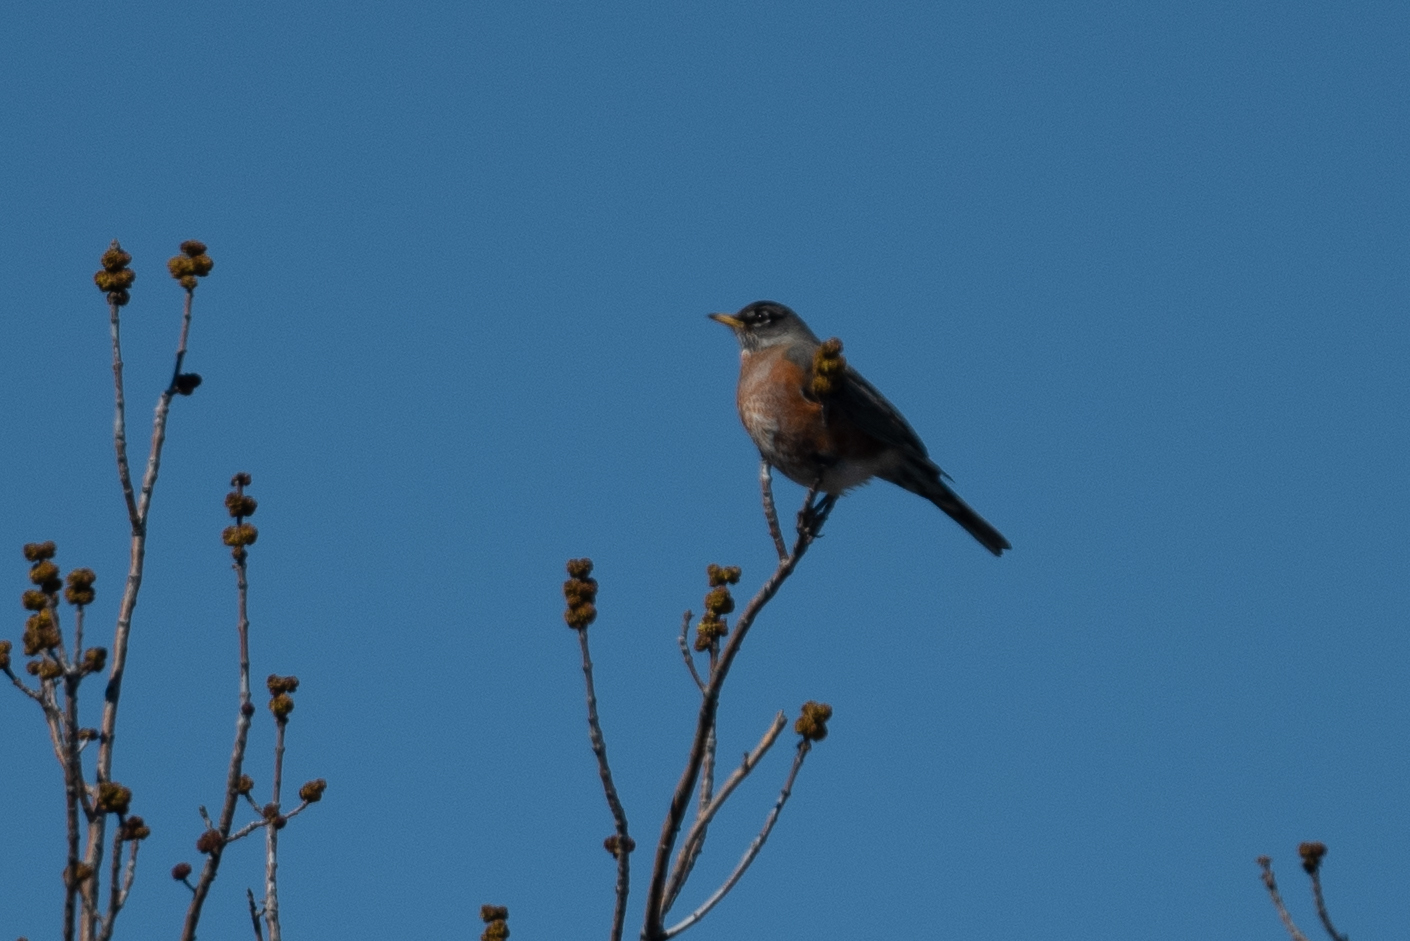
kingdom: Animalia
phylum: Chordata
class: Aves
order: Passeriformes
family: Turdidae
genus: Turdus
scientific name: Turdus migratorius
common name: American robin
